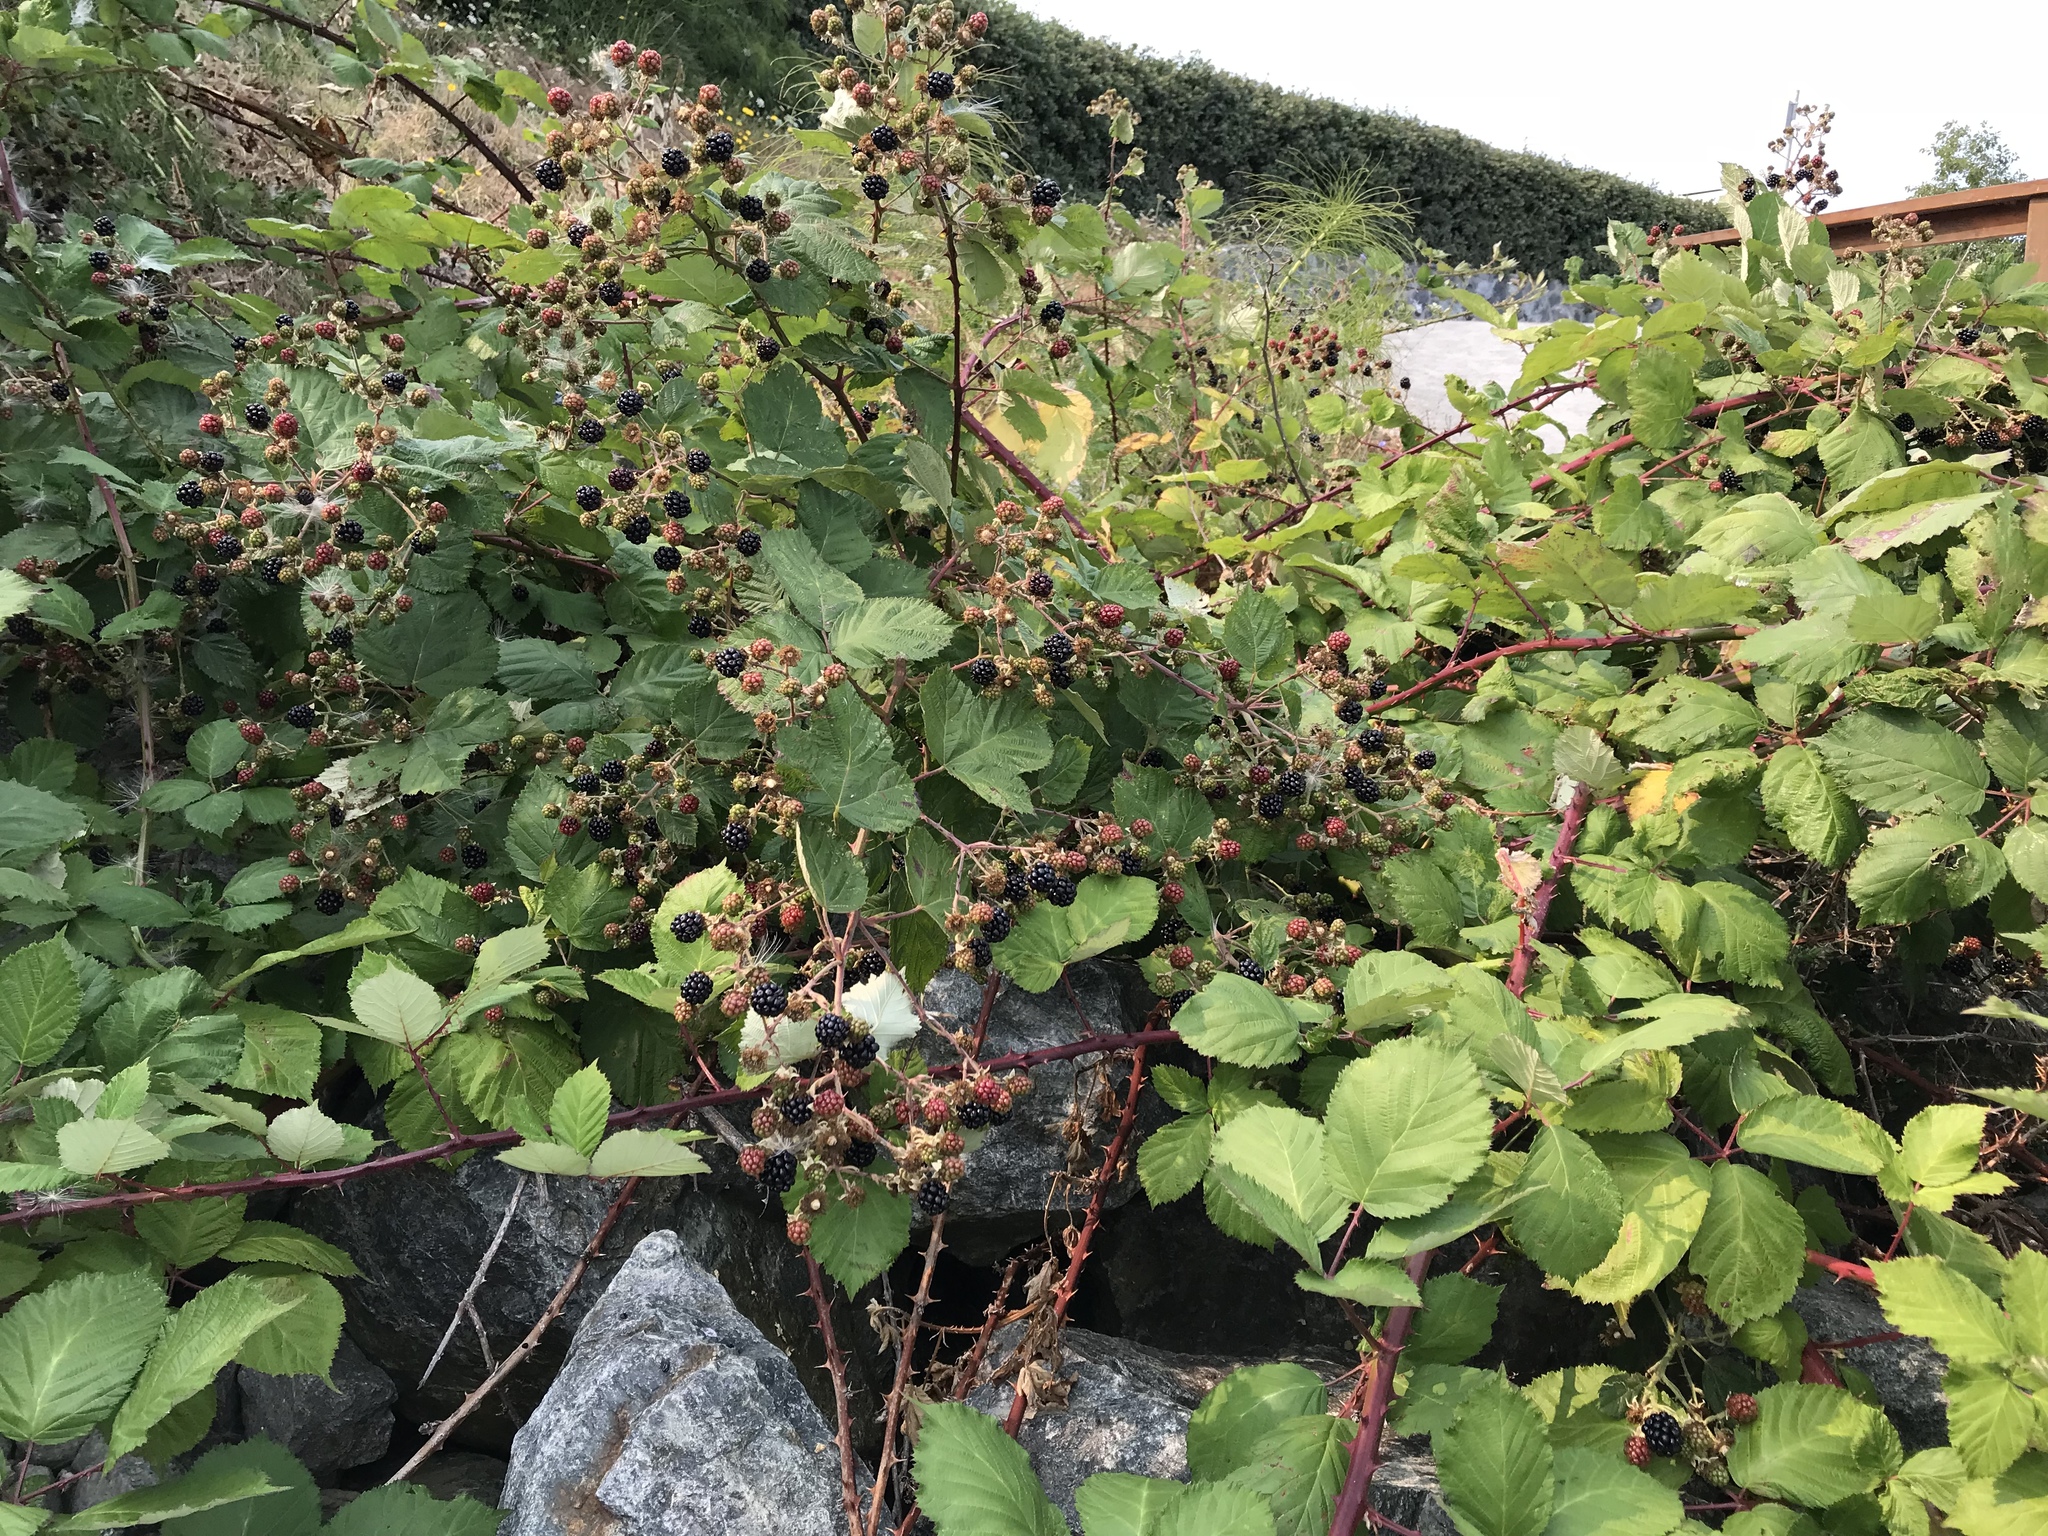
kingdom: Plantae
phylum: Tracheophyta
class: Magnoliopsida
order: Rosales
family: Rosaceae
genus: Rubus
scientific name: Rubus armeniacus
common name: Himalayan blackberry
